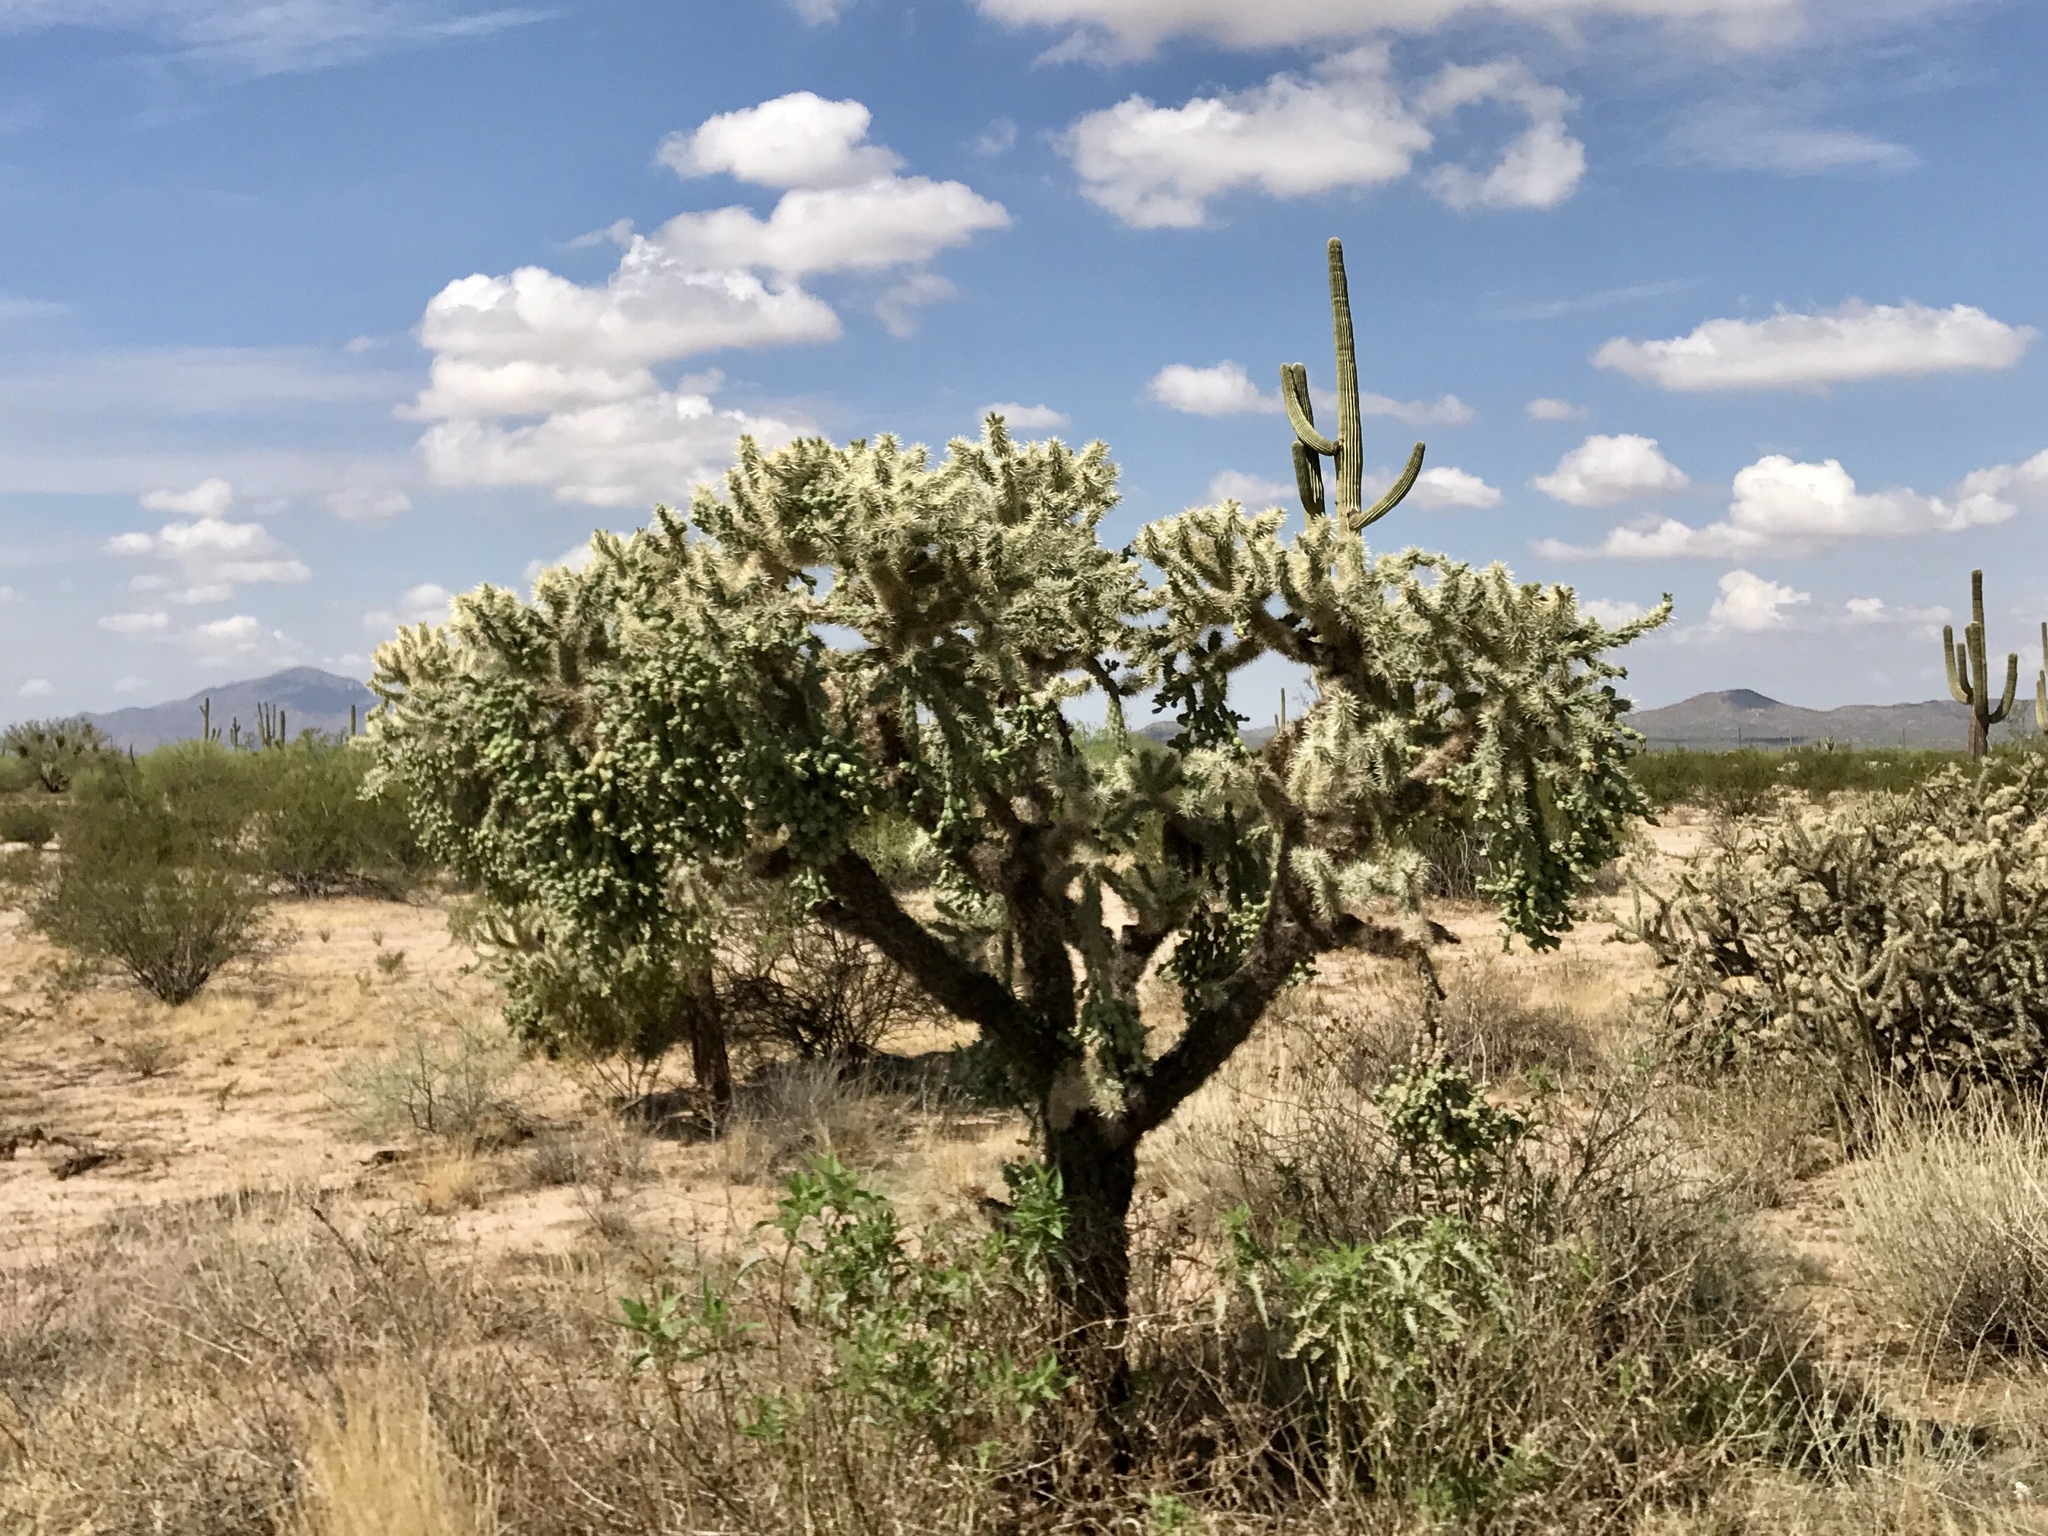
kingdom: Plantae
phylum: Tracheophyta
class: Magnoliopsida
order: Caryophyllales
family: Cactaceae
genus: Cylindropuntia
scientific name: Cylindropuntia fulgida
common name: Jumping cholla
